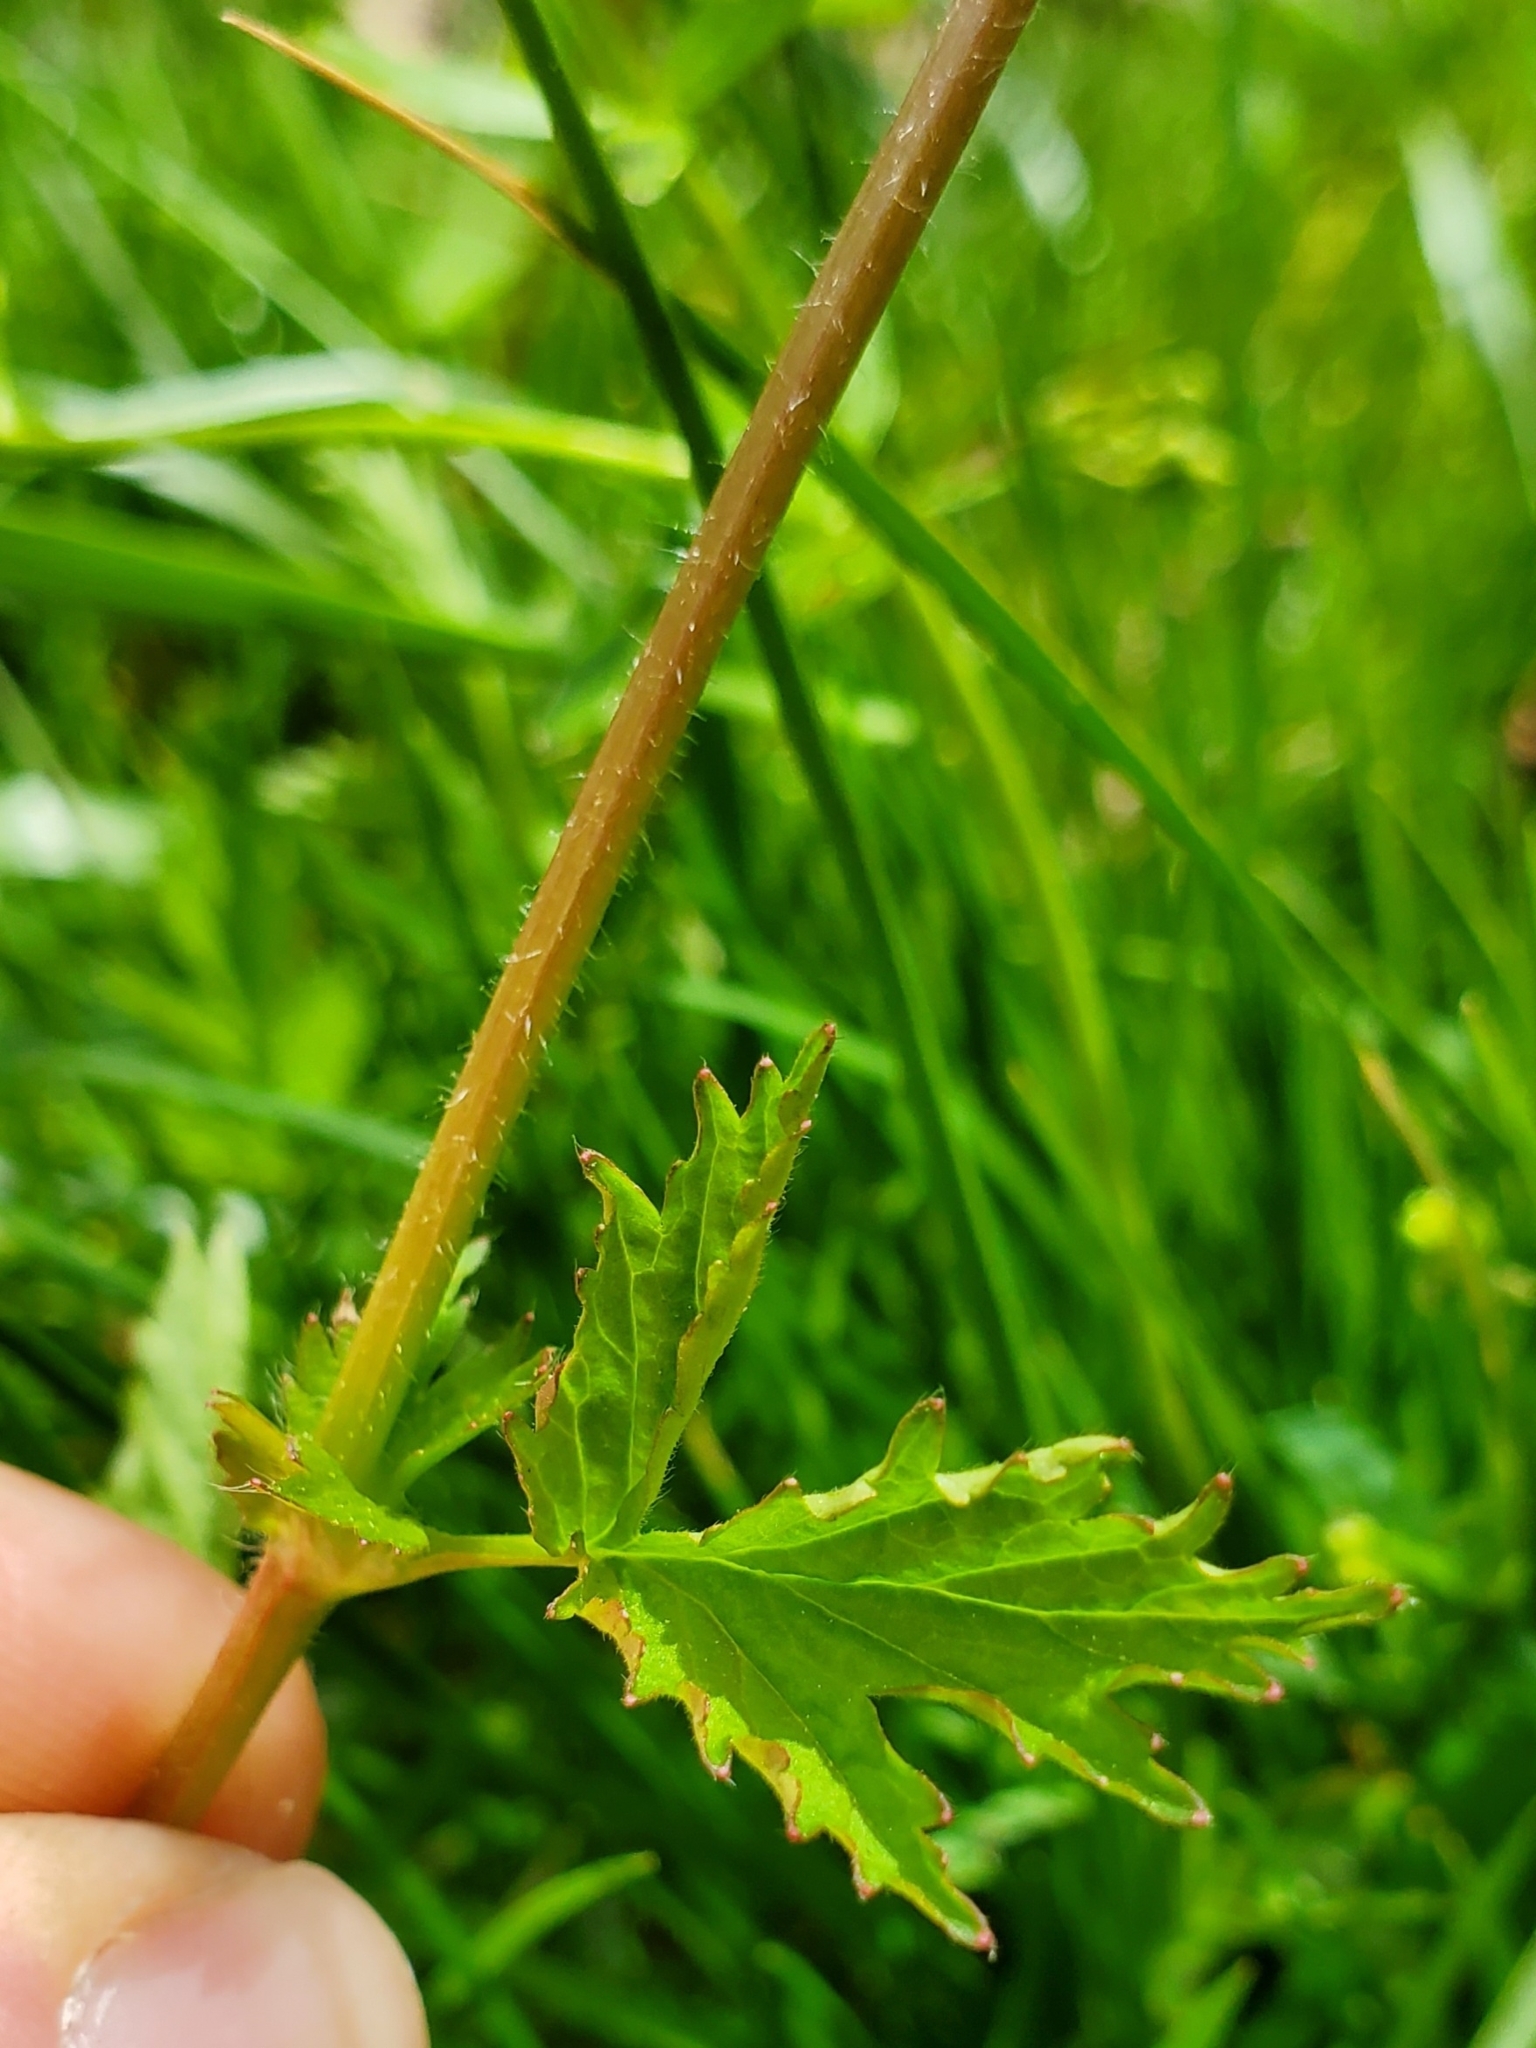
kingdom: Plantae
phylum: Tracheophyta
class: Magnoliopsida
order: Rosales
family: Rosaceae
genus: Geum
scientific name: Geum vernum
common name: Spring avens
